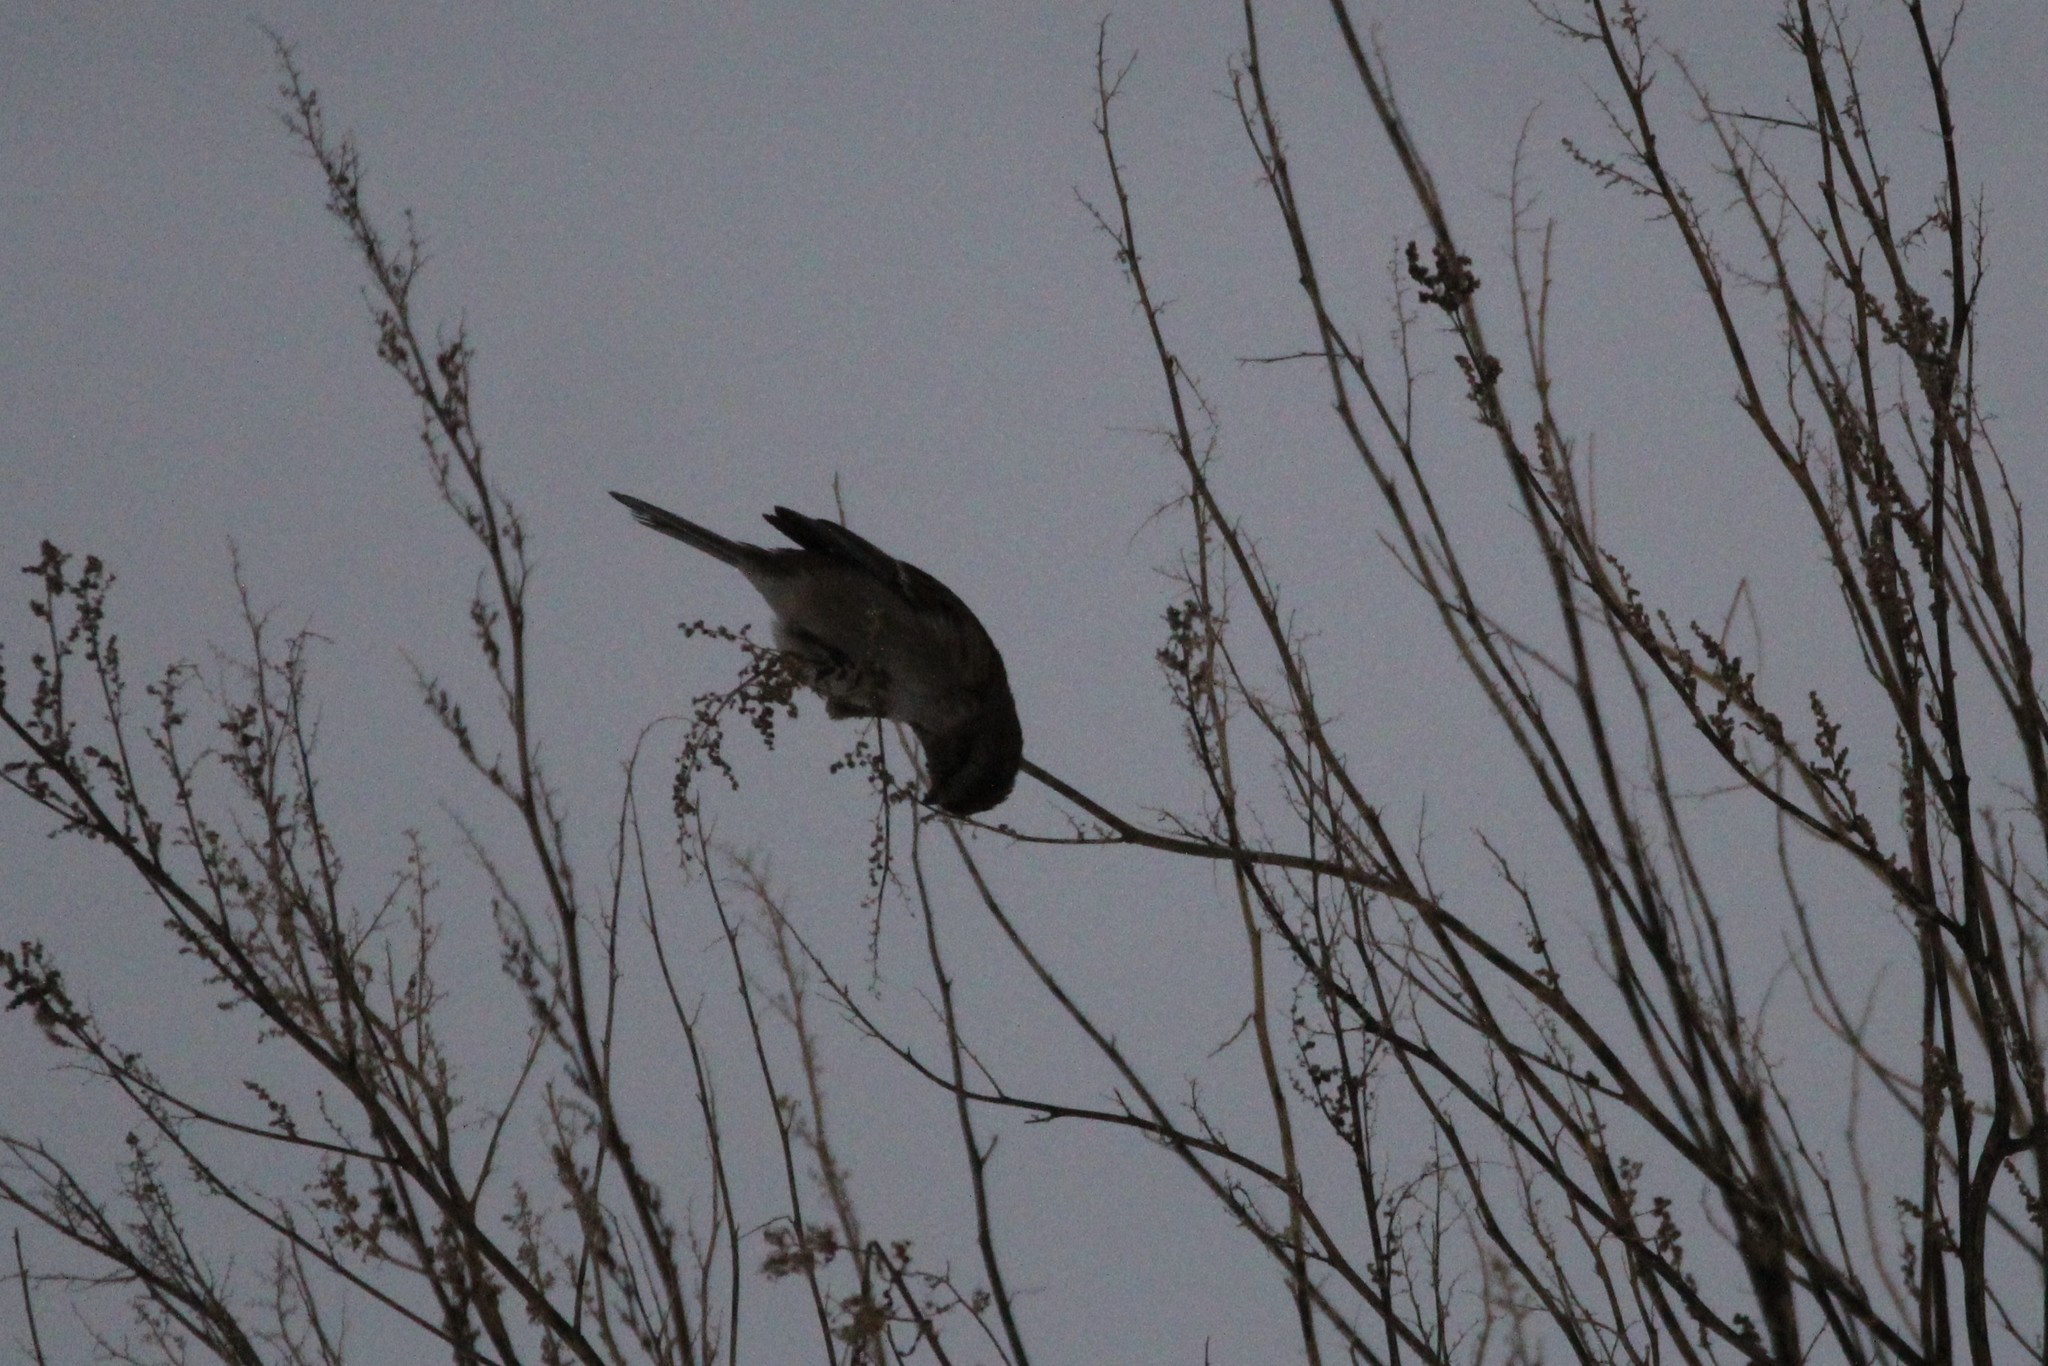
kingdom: Animalia
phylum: Chordata
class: Aves
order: Passeriformes
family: Passerellidae
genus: Spizelloides
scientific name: Spizelloides arborea
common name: American tree sparrow
